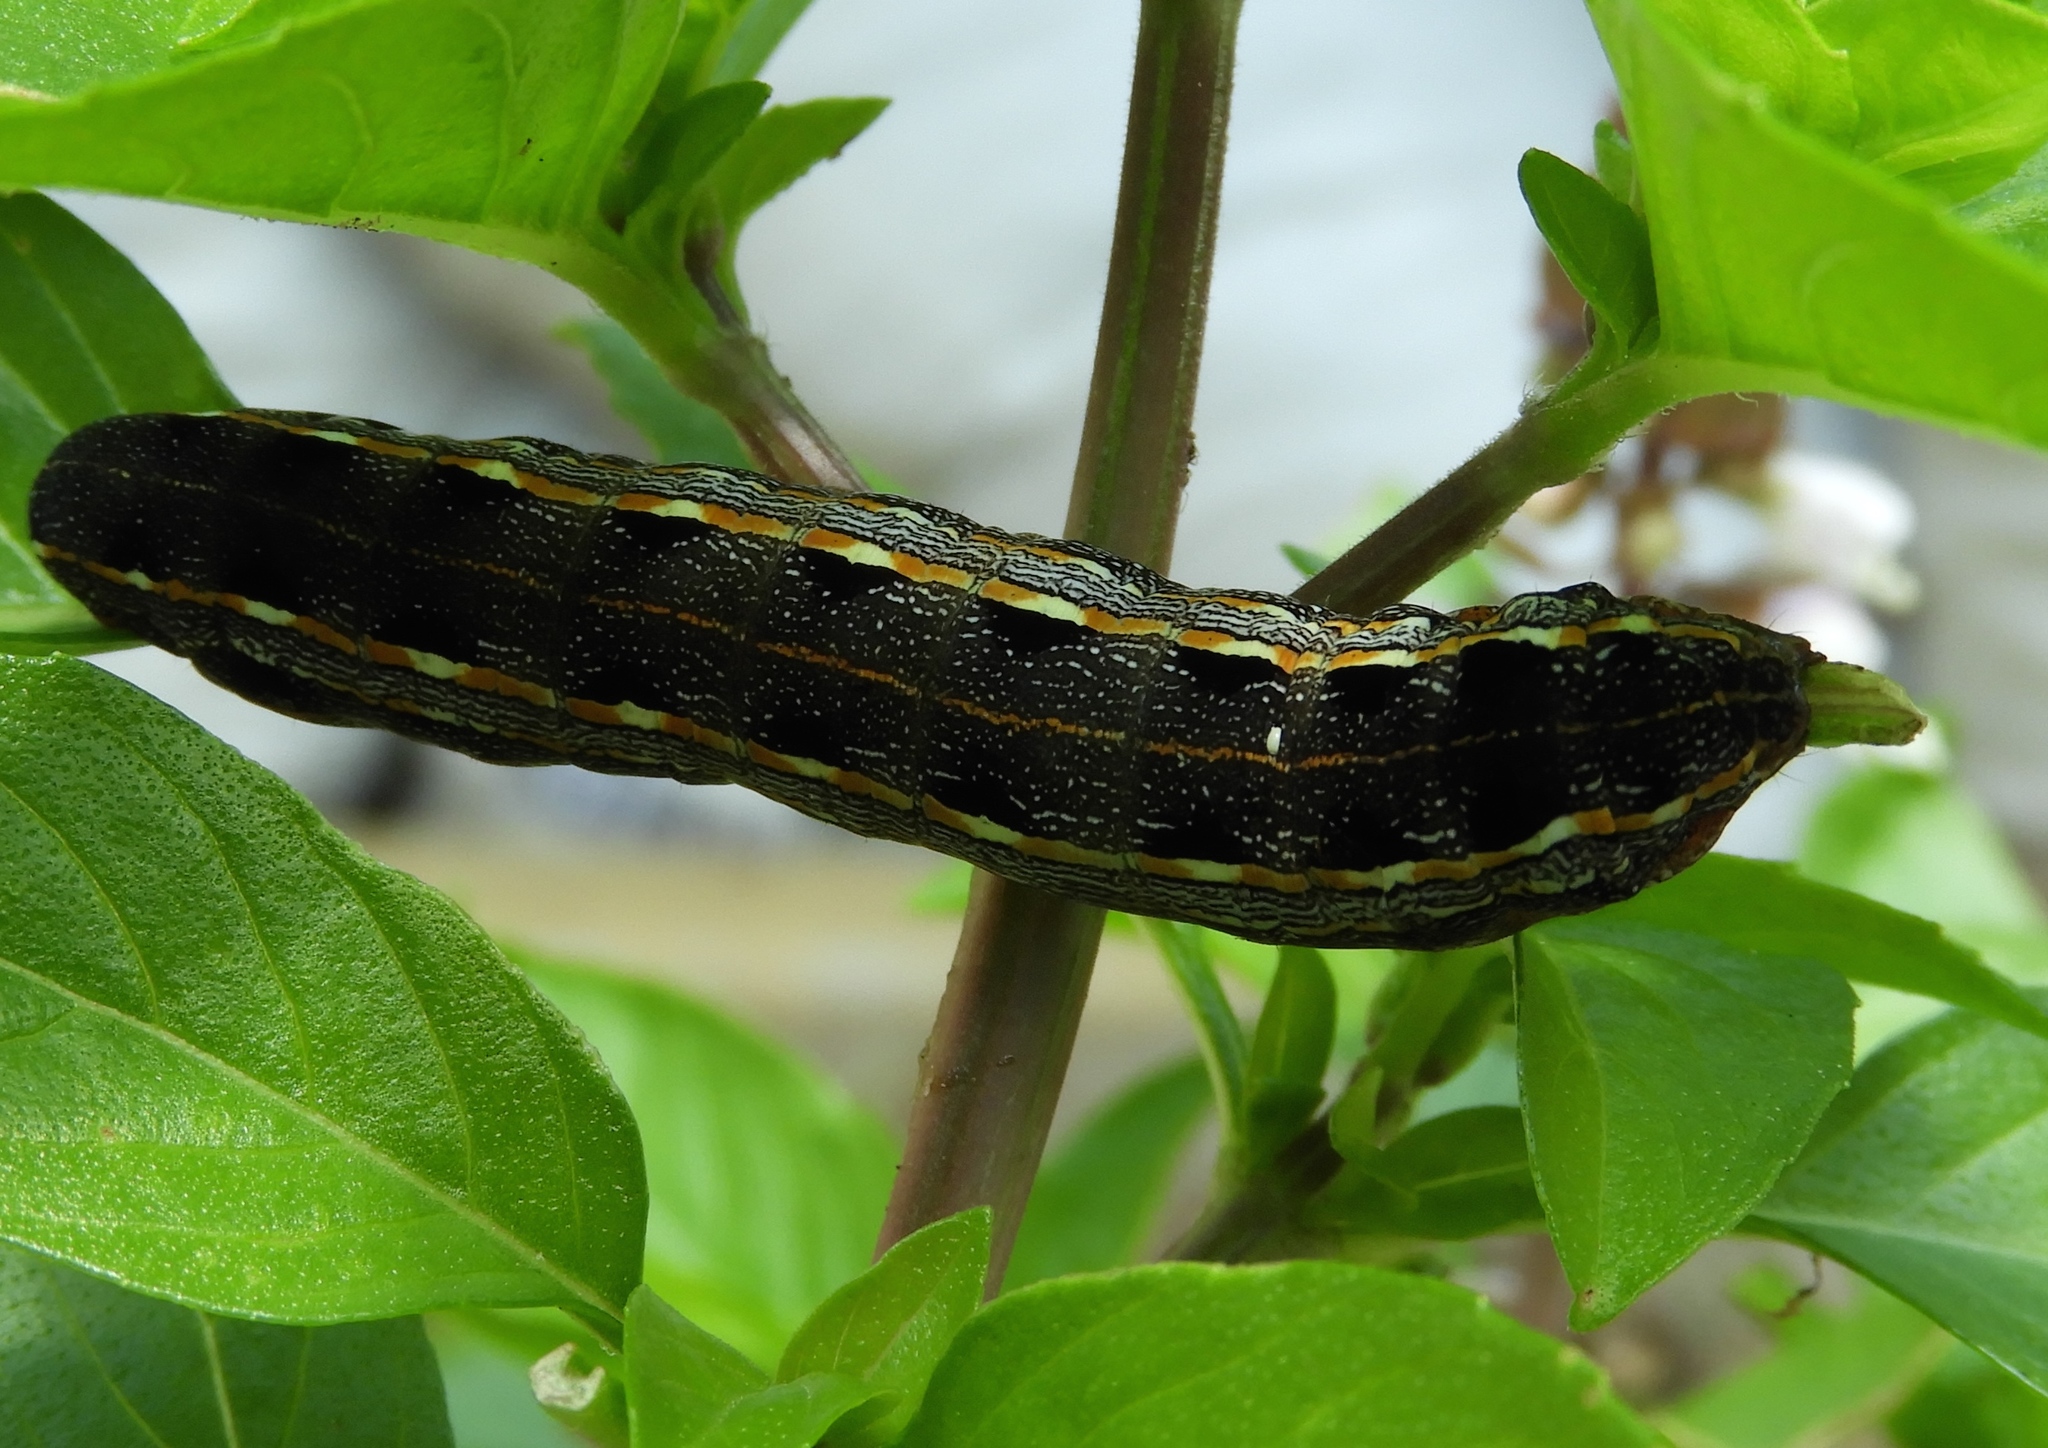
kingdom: Animalia
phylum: Arthropoda
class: Insecta
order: Lepidoptera
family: Noctuidae
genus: Spodoptera
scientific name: Spodoptera ornithogalli
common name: Yellow-striped armyworm
